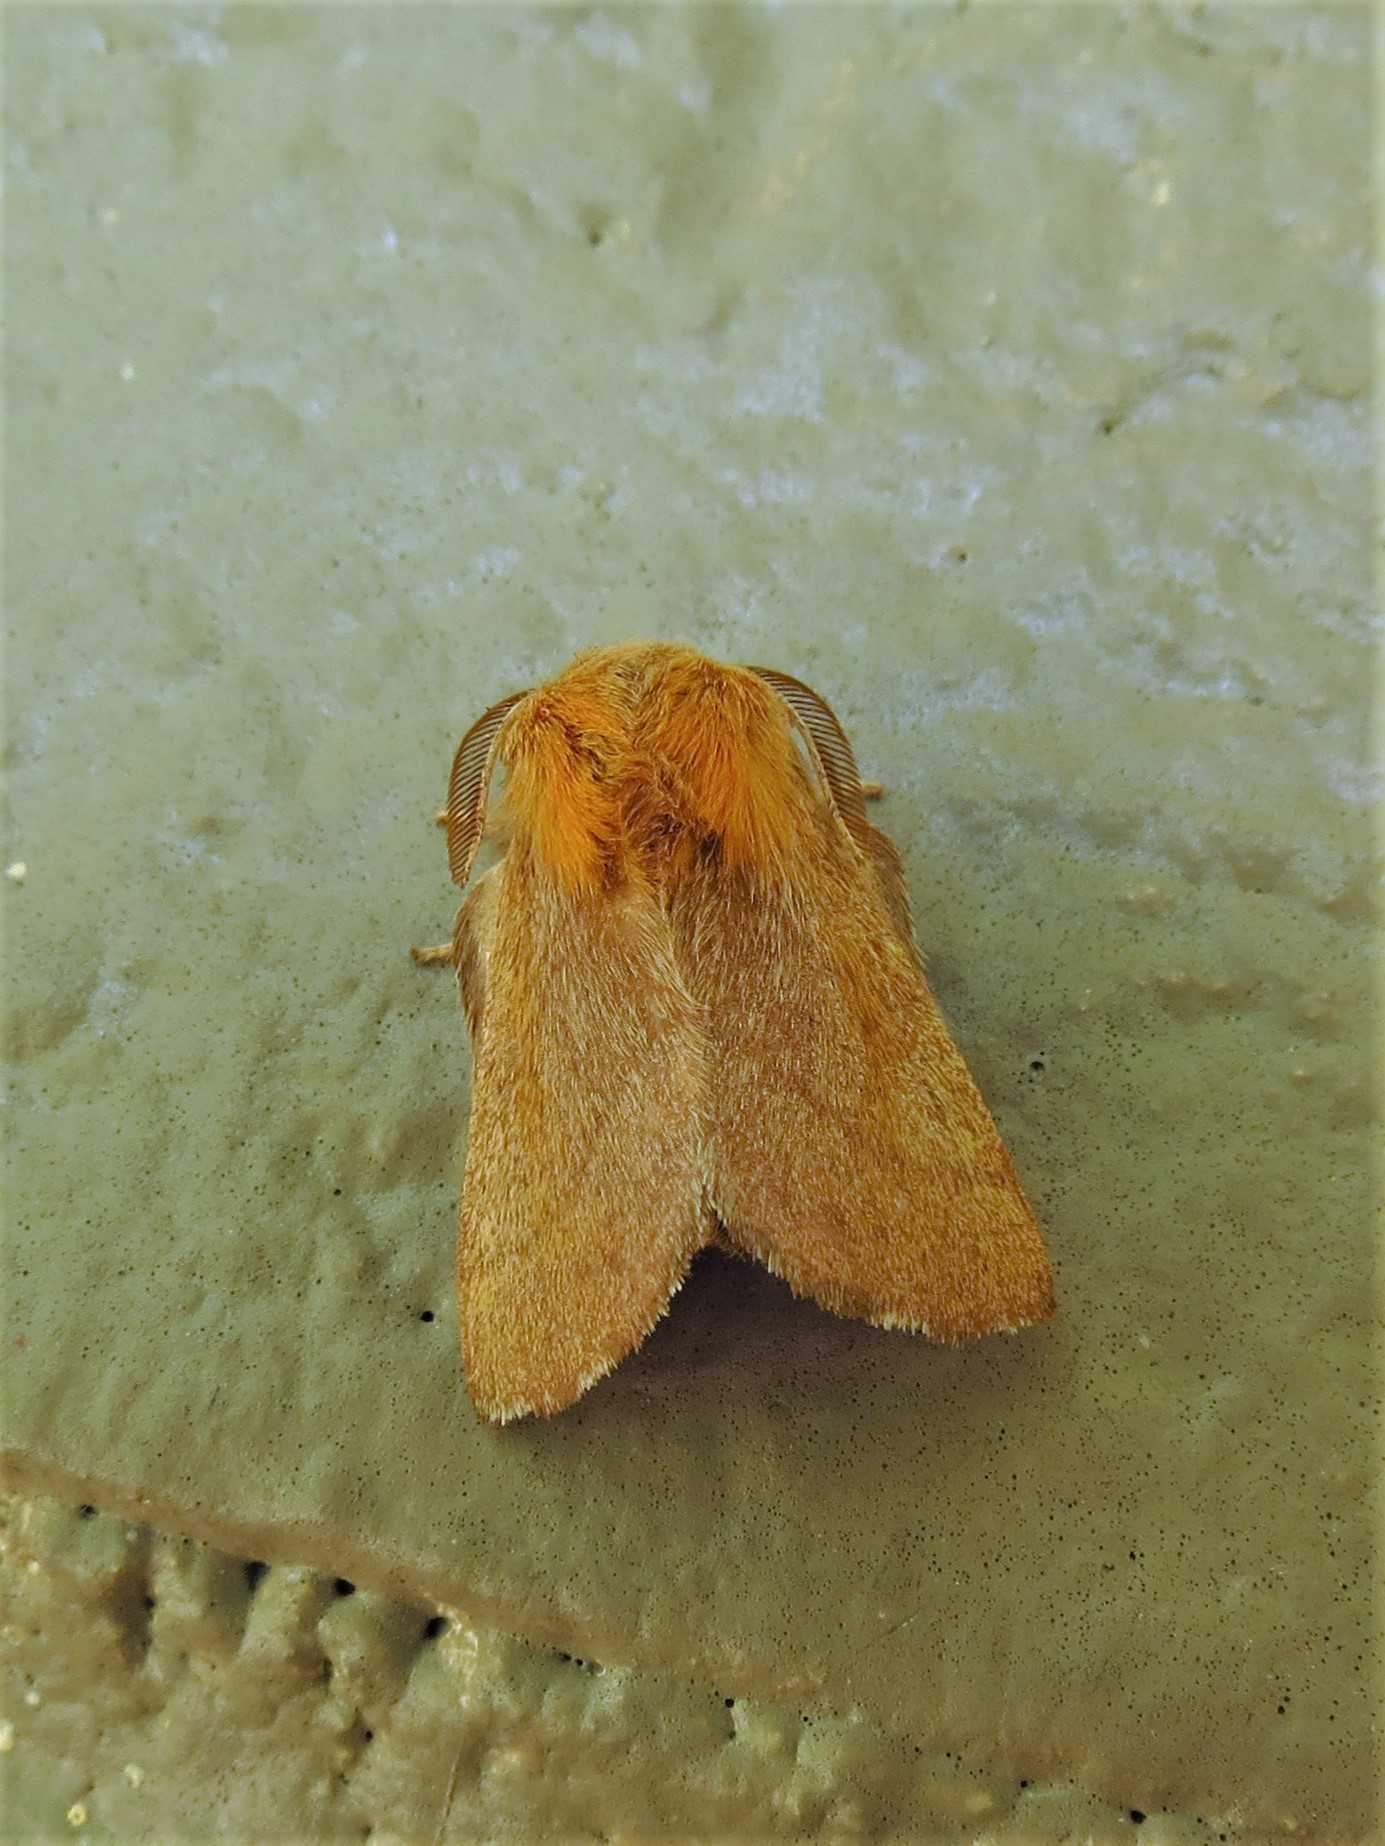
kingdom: Animalia
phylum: Arthropoda
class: Insecta
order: Lepidoptera
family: Lasiocampidae
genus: Malacosoma
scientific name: Malacosoma disstria
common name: Forest tent caterpillar
